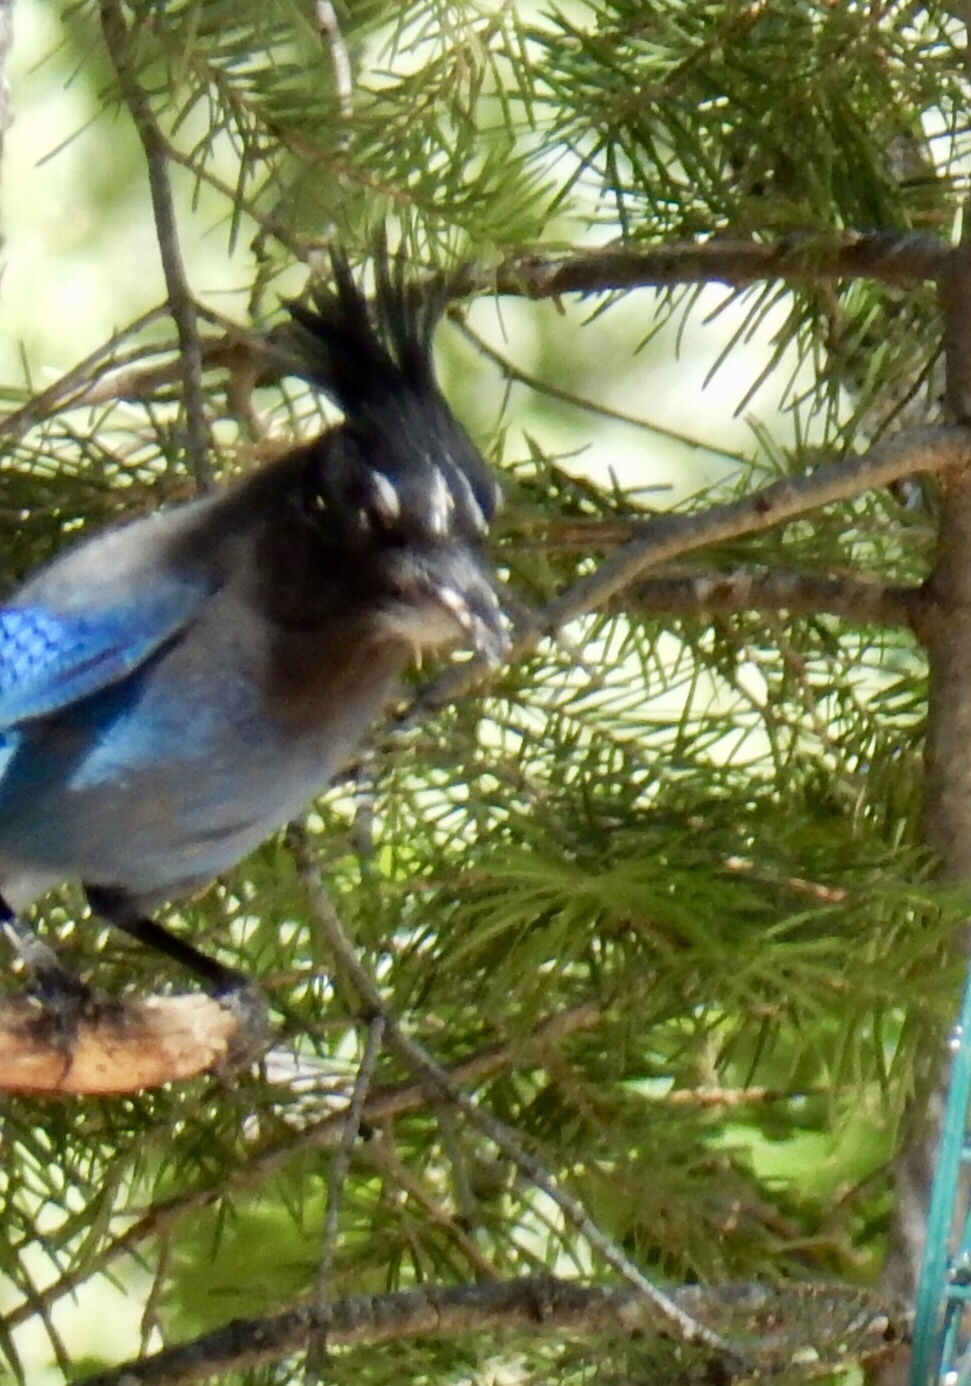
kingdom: Animalia
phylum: Chordata
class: Aves
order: Passeriformes
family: Corvidae
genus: Cyanocitta
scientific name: Cyanocitta stelleri
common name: Steller's jay
